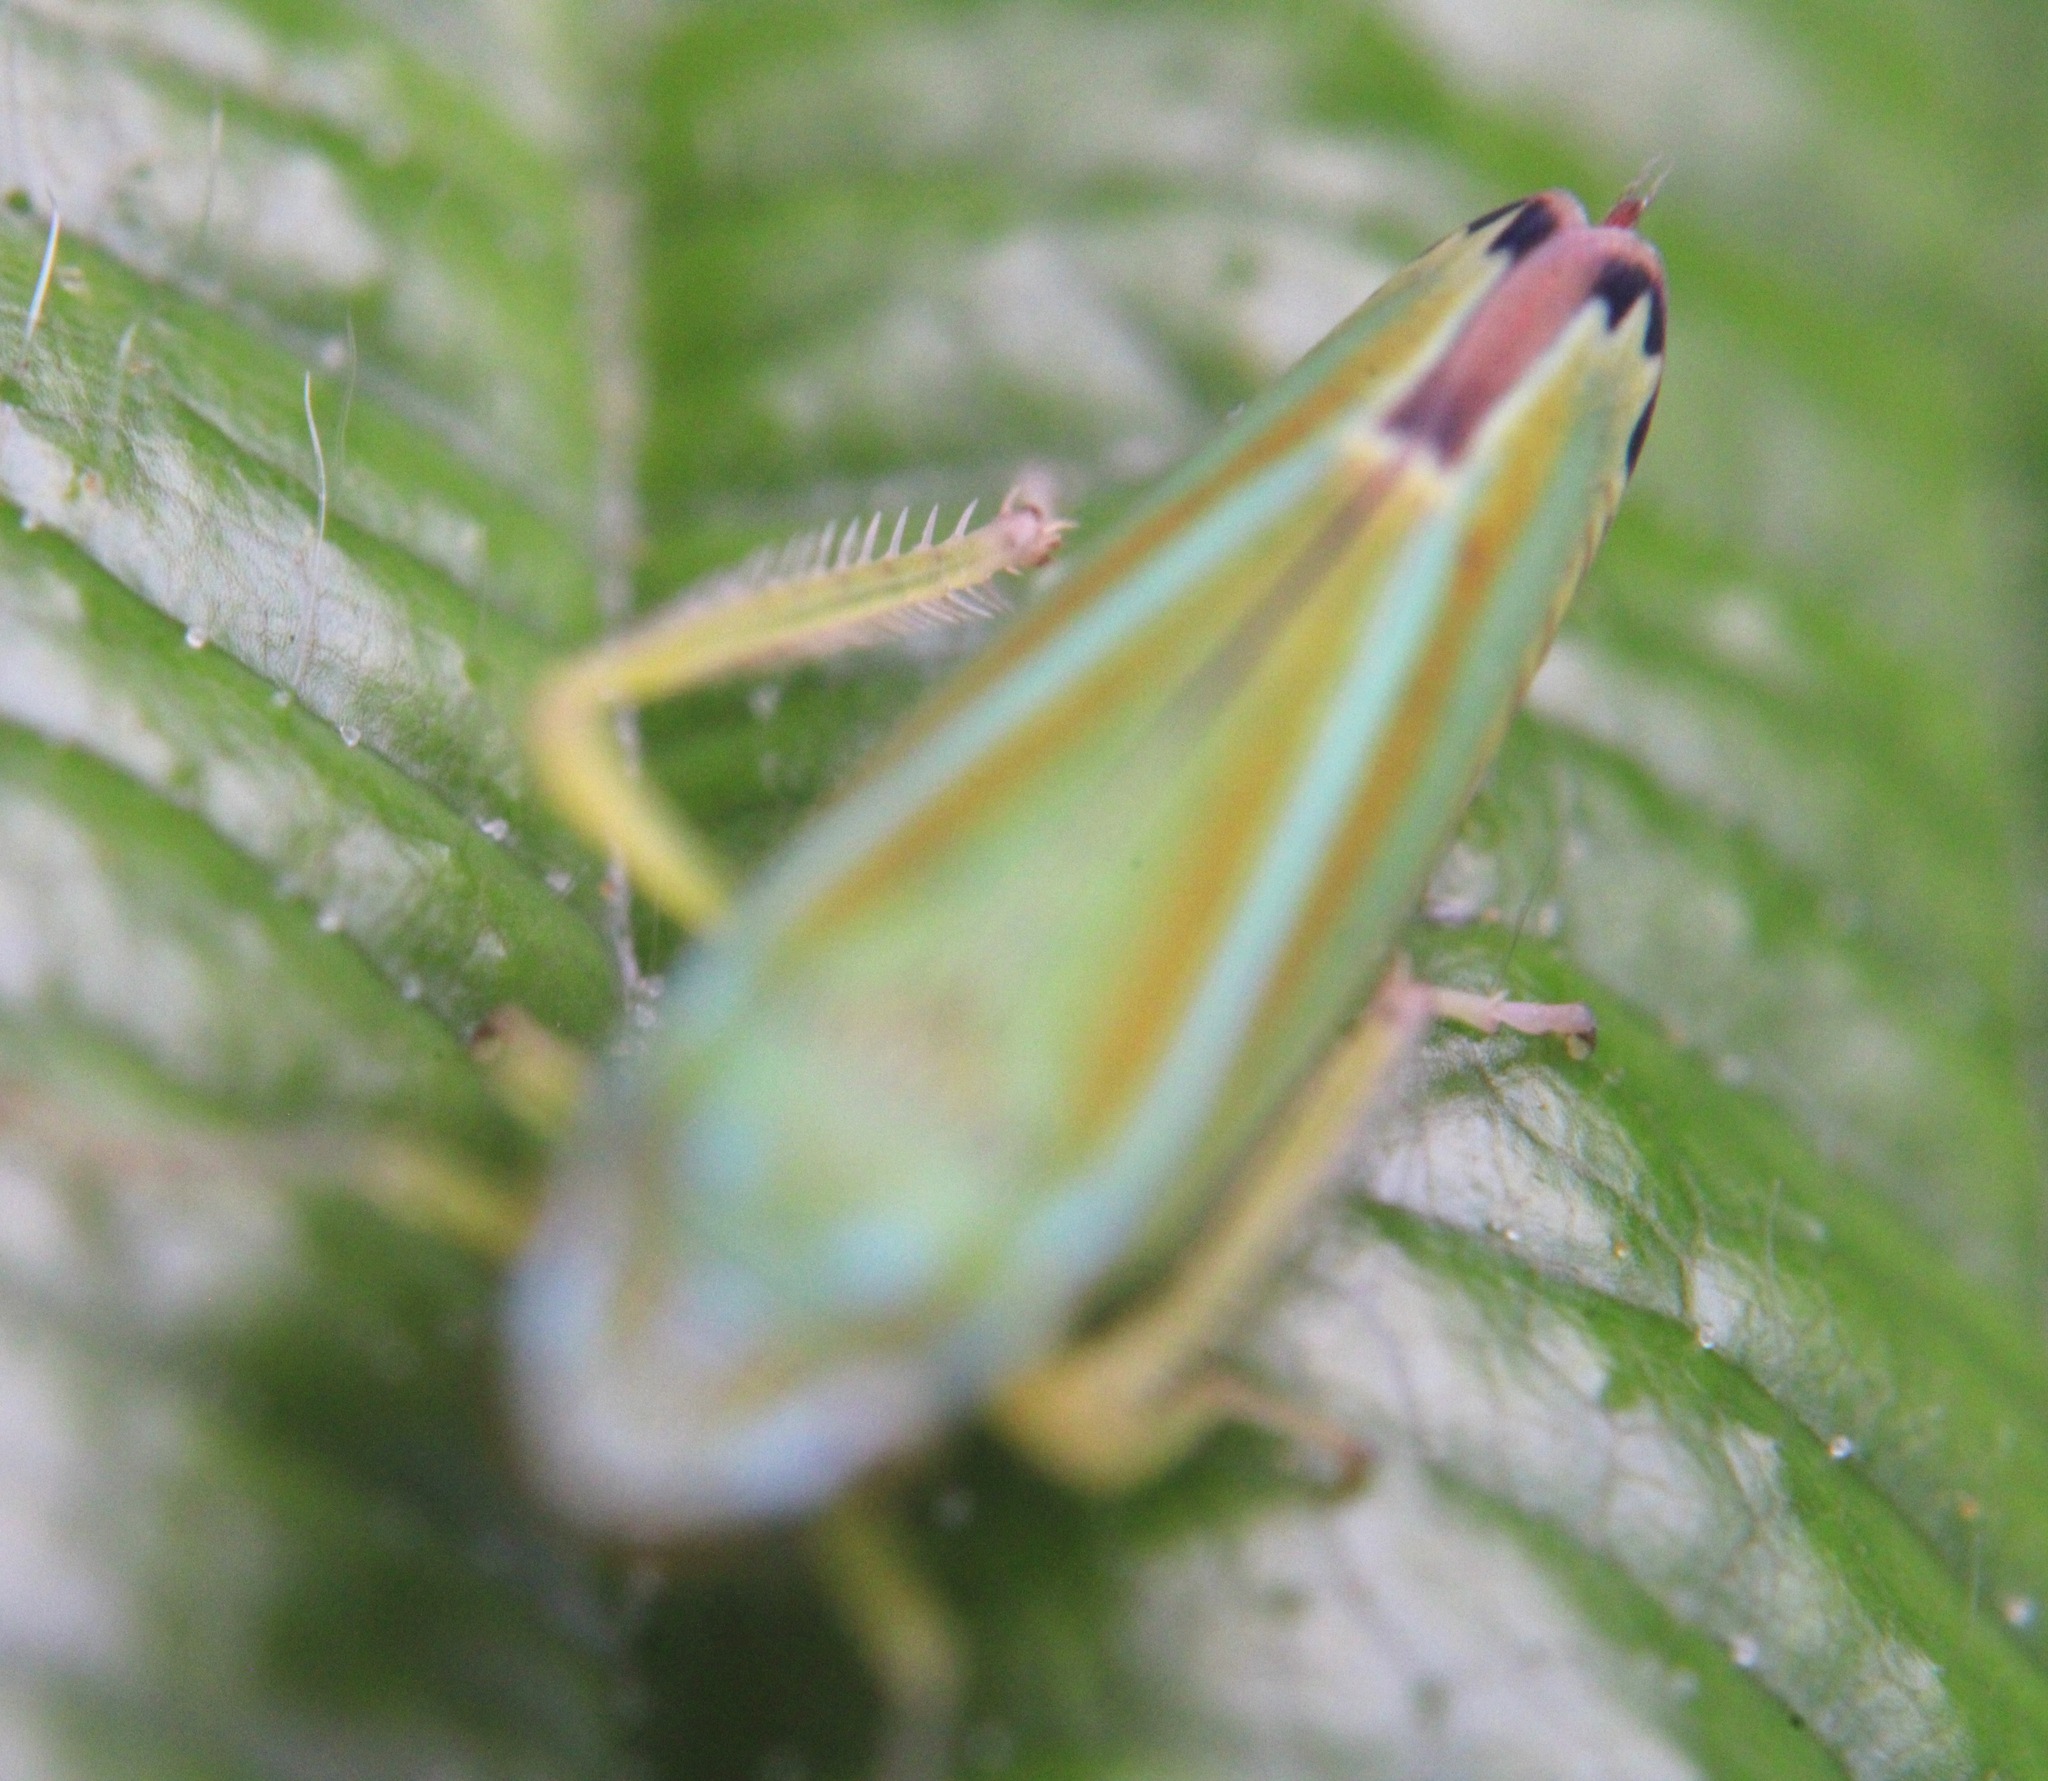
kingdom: Animalia
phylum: Arthropoda
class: Insecta
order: Hemiptera
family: Cicadellidae
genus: Graphocephala
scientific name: Graphocephala versuta
